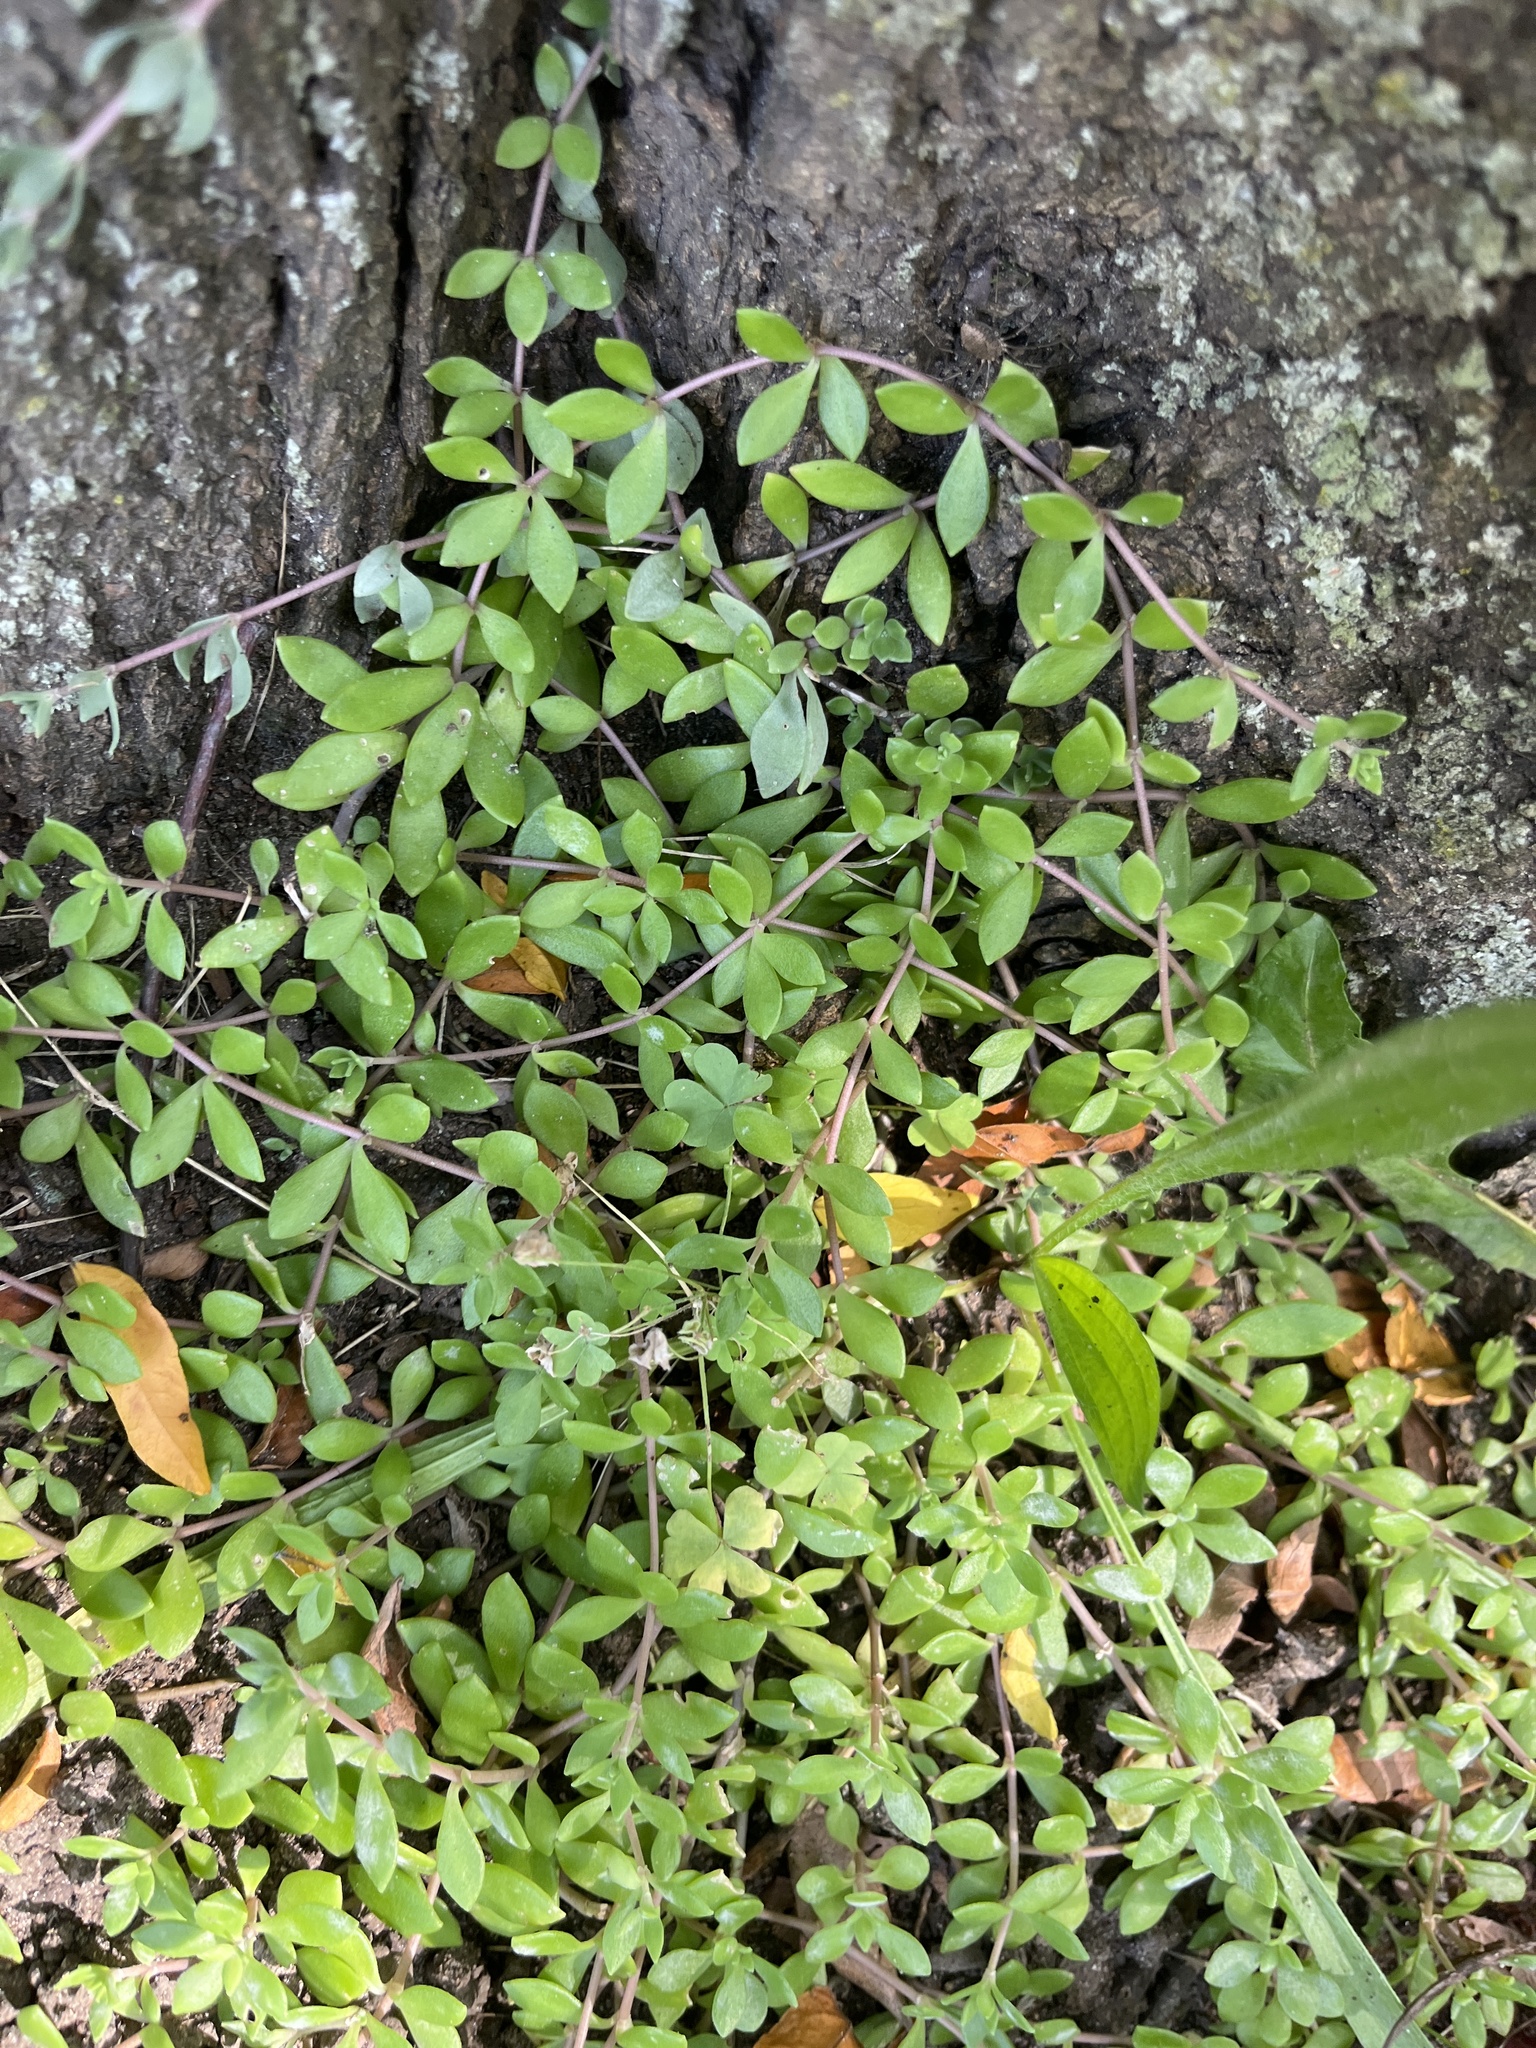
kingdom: Plantae
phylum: Tracheophyta
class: Magnoliopsida
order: Saxifragales
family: Crassulaceae
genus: Sedum
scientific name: Sedum sarmentosum
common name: Stringy stonecrop
